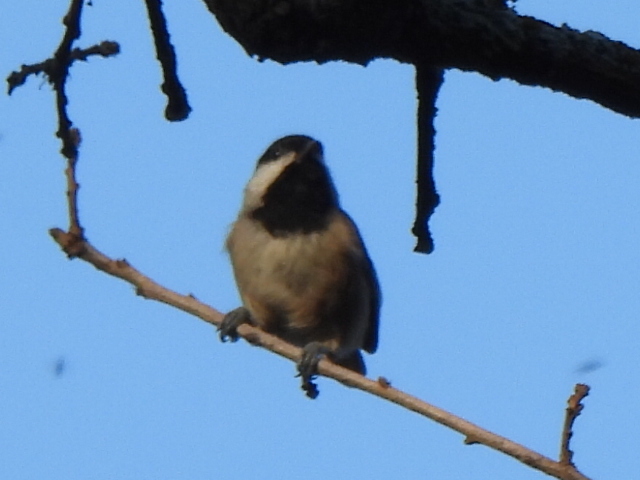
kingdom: Animalia
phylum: Chordata
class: Aves
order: Passeriformes
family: Paridae
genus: Poecile
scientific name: Poecile carolinensis
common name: Carolina chickadee
